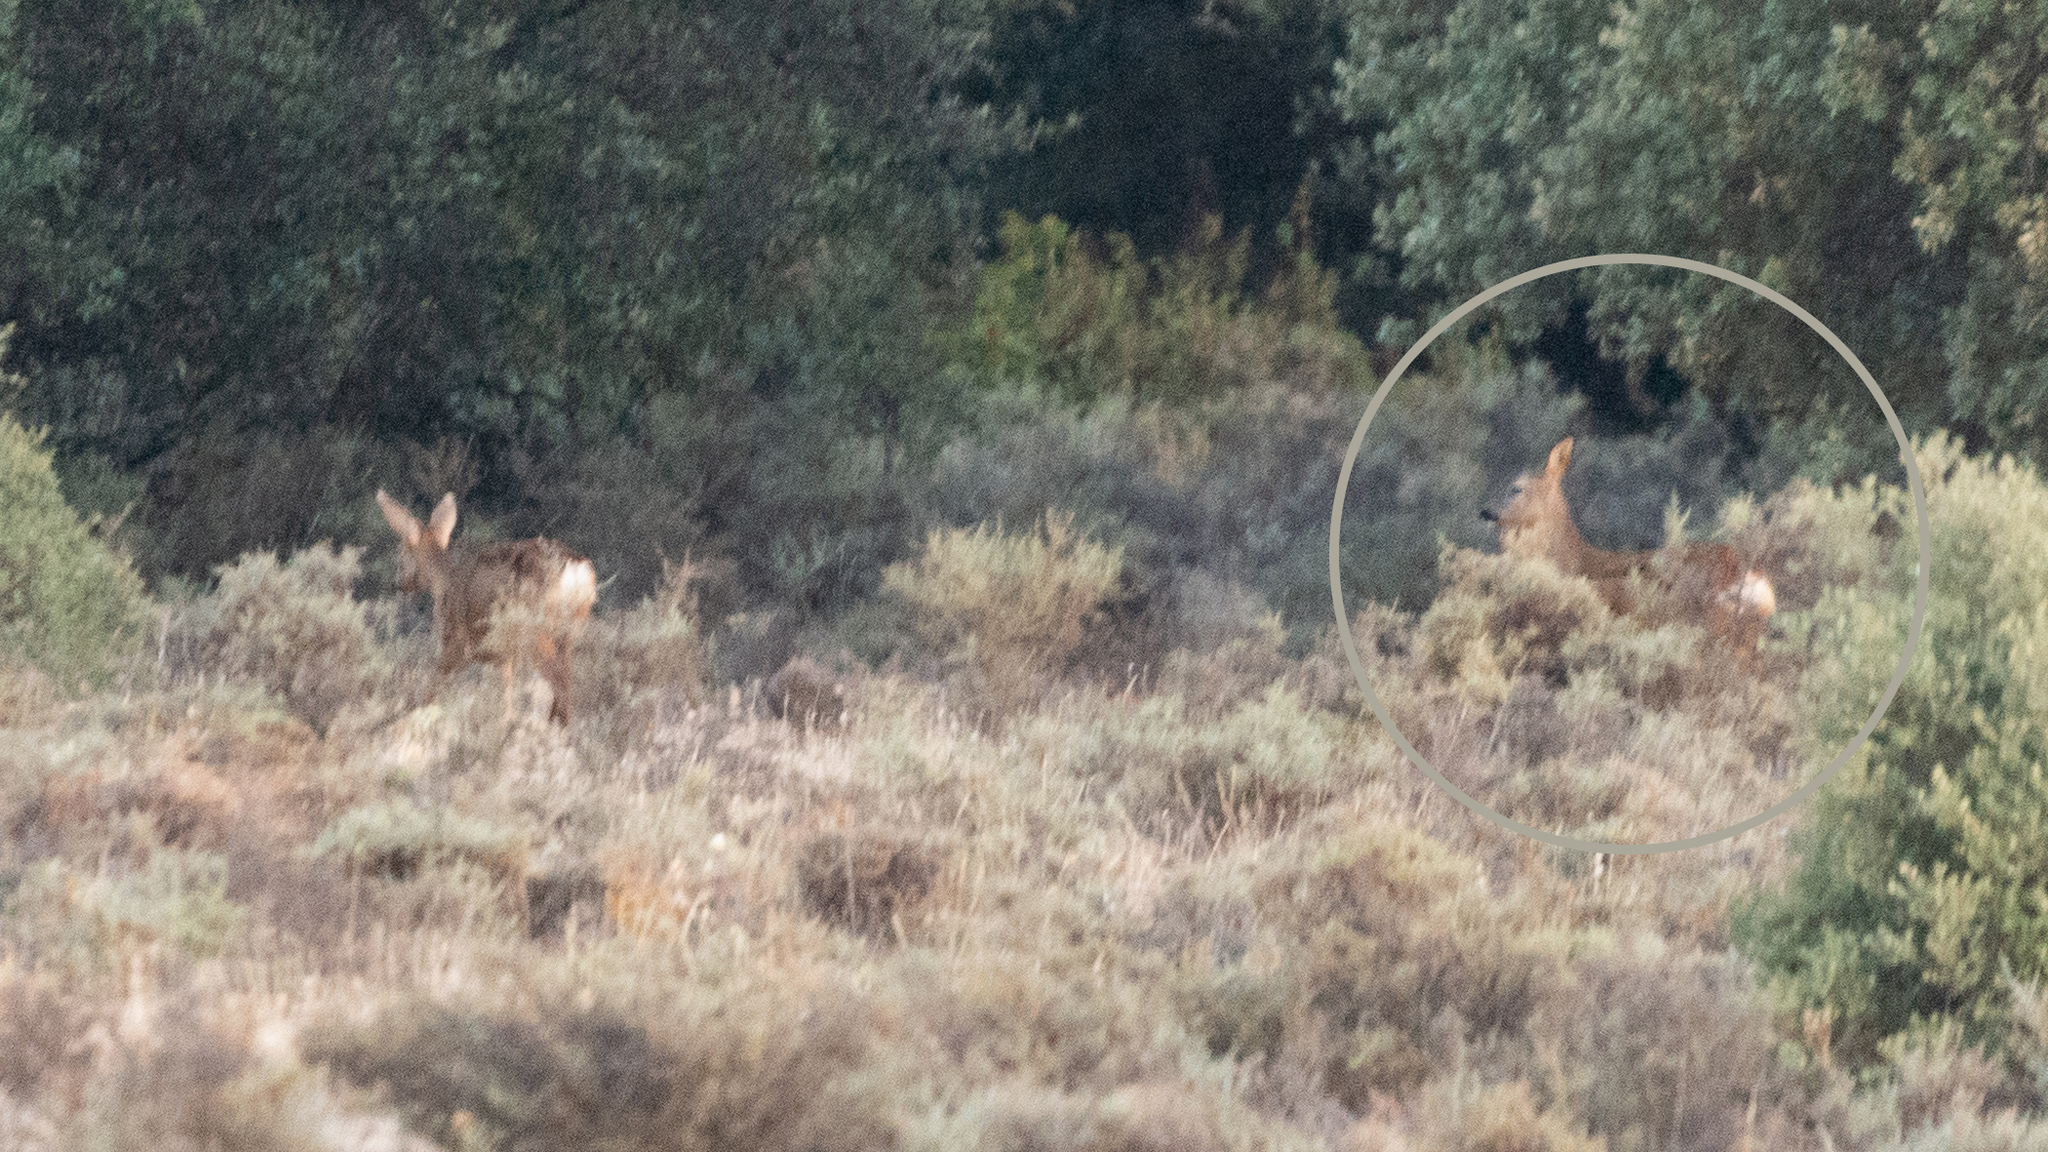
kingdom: Animalia
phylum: Chordata
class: Mammalia
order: Artiodactyla
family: Cervidae
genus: Capreolus
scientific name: Capreolus capreolus
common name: Western roe deer
